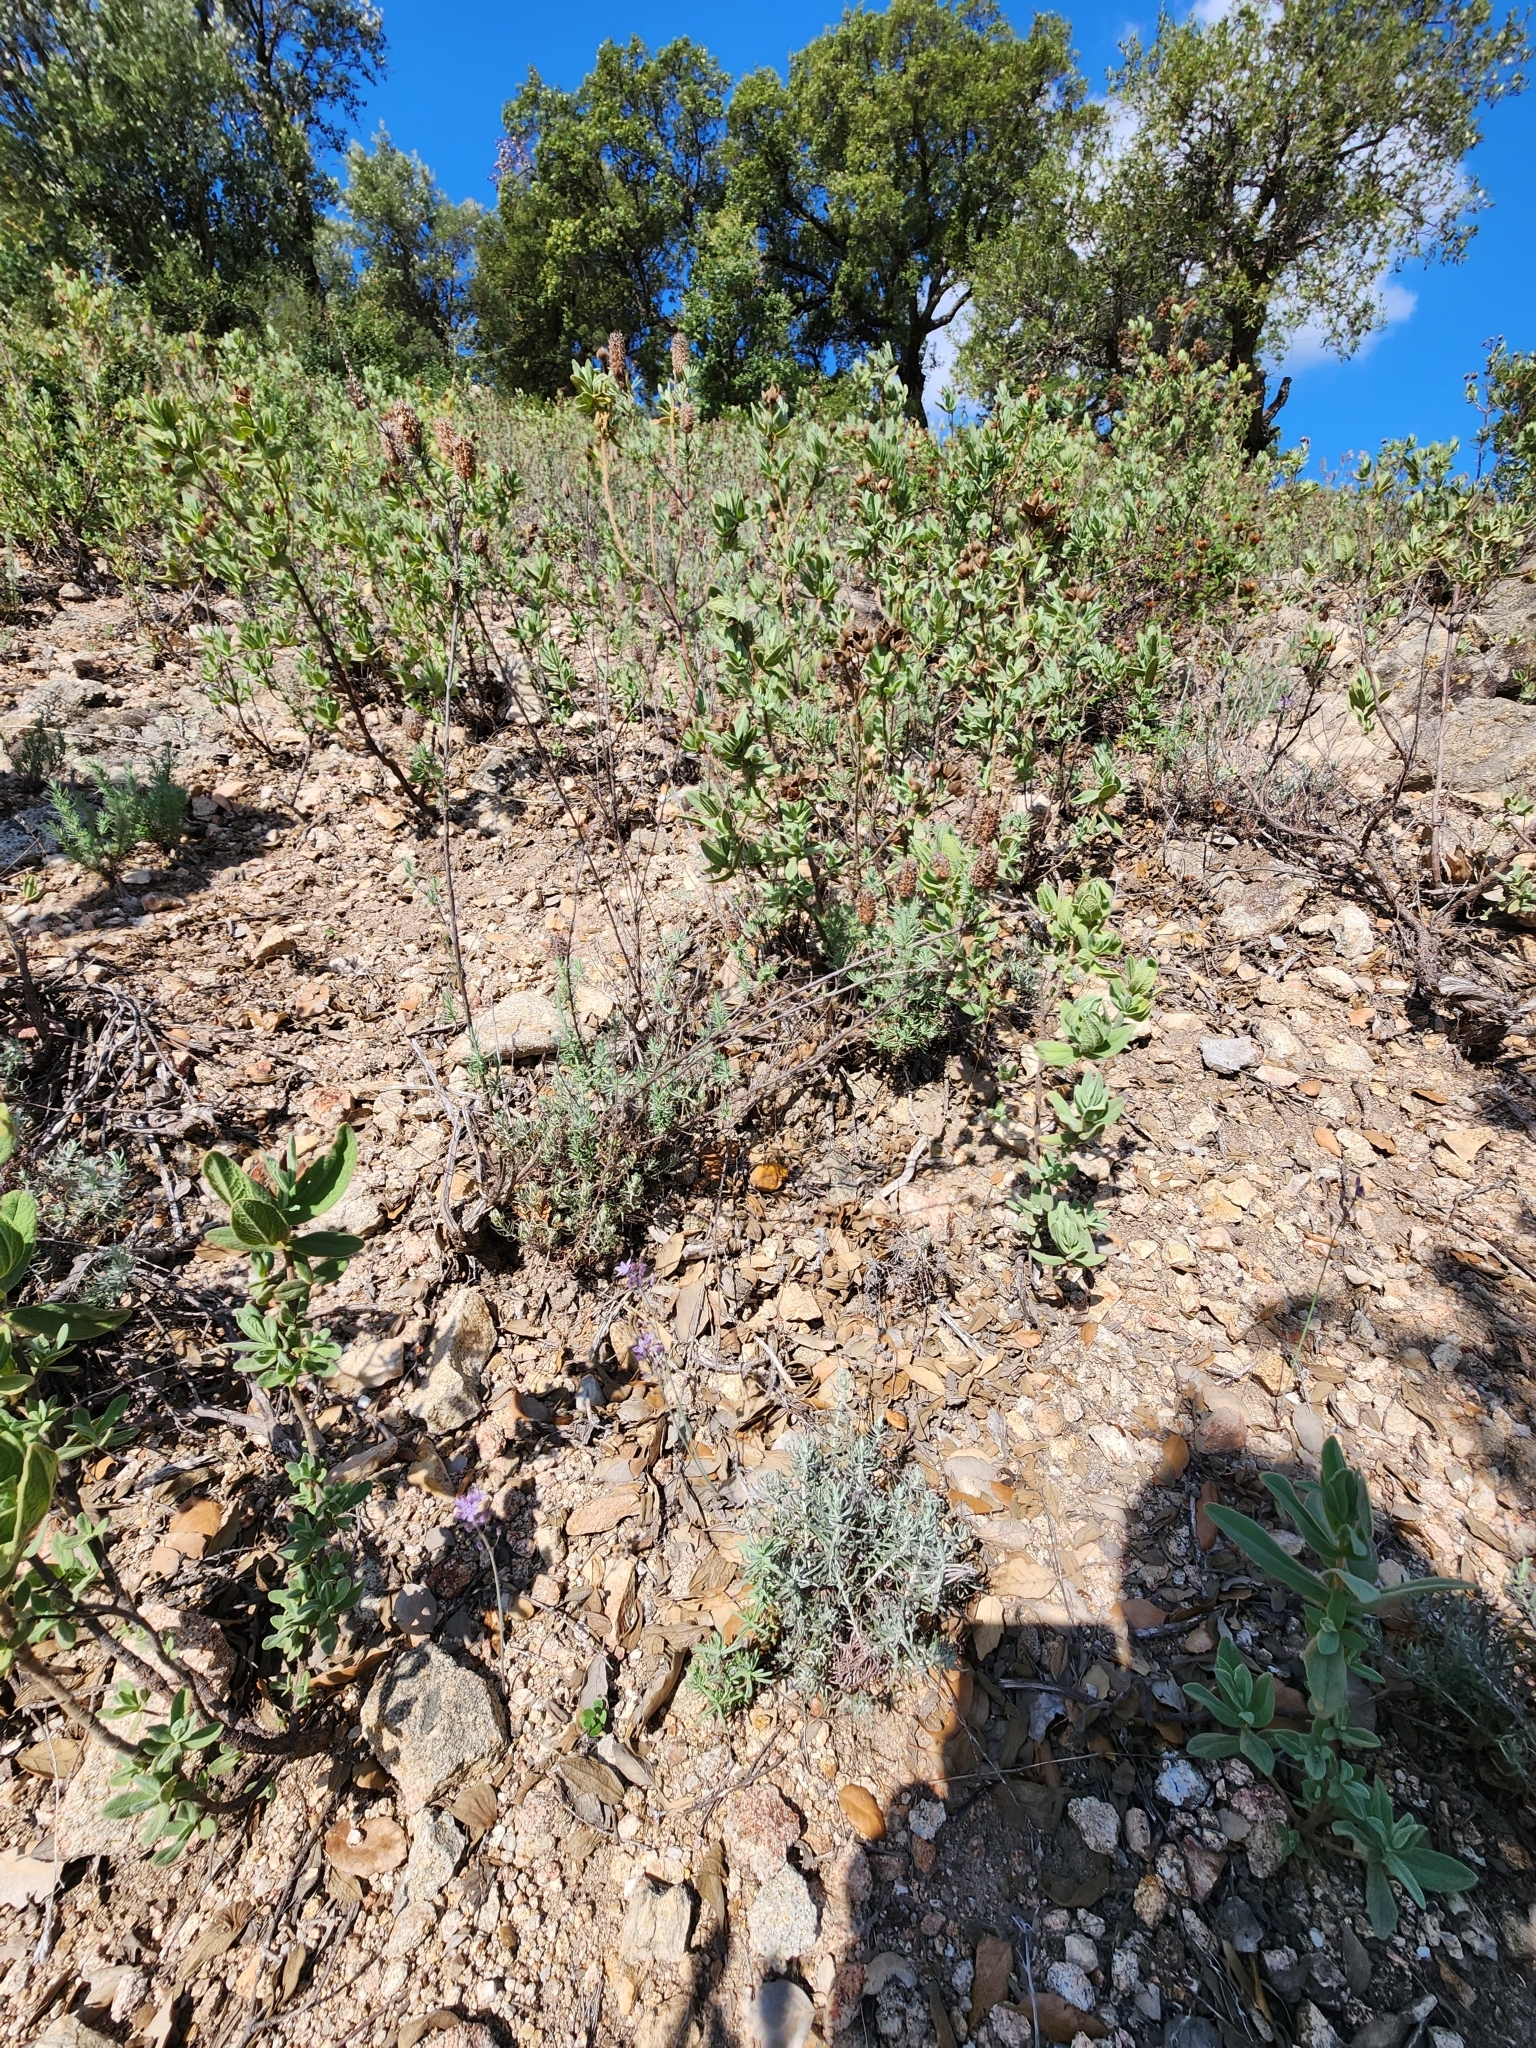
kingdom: Plantae
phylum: Tracheophyta
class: Liliopsida
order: Asparagales
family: Asparagaceae
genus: Prospero
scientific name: Prospero autumnale
